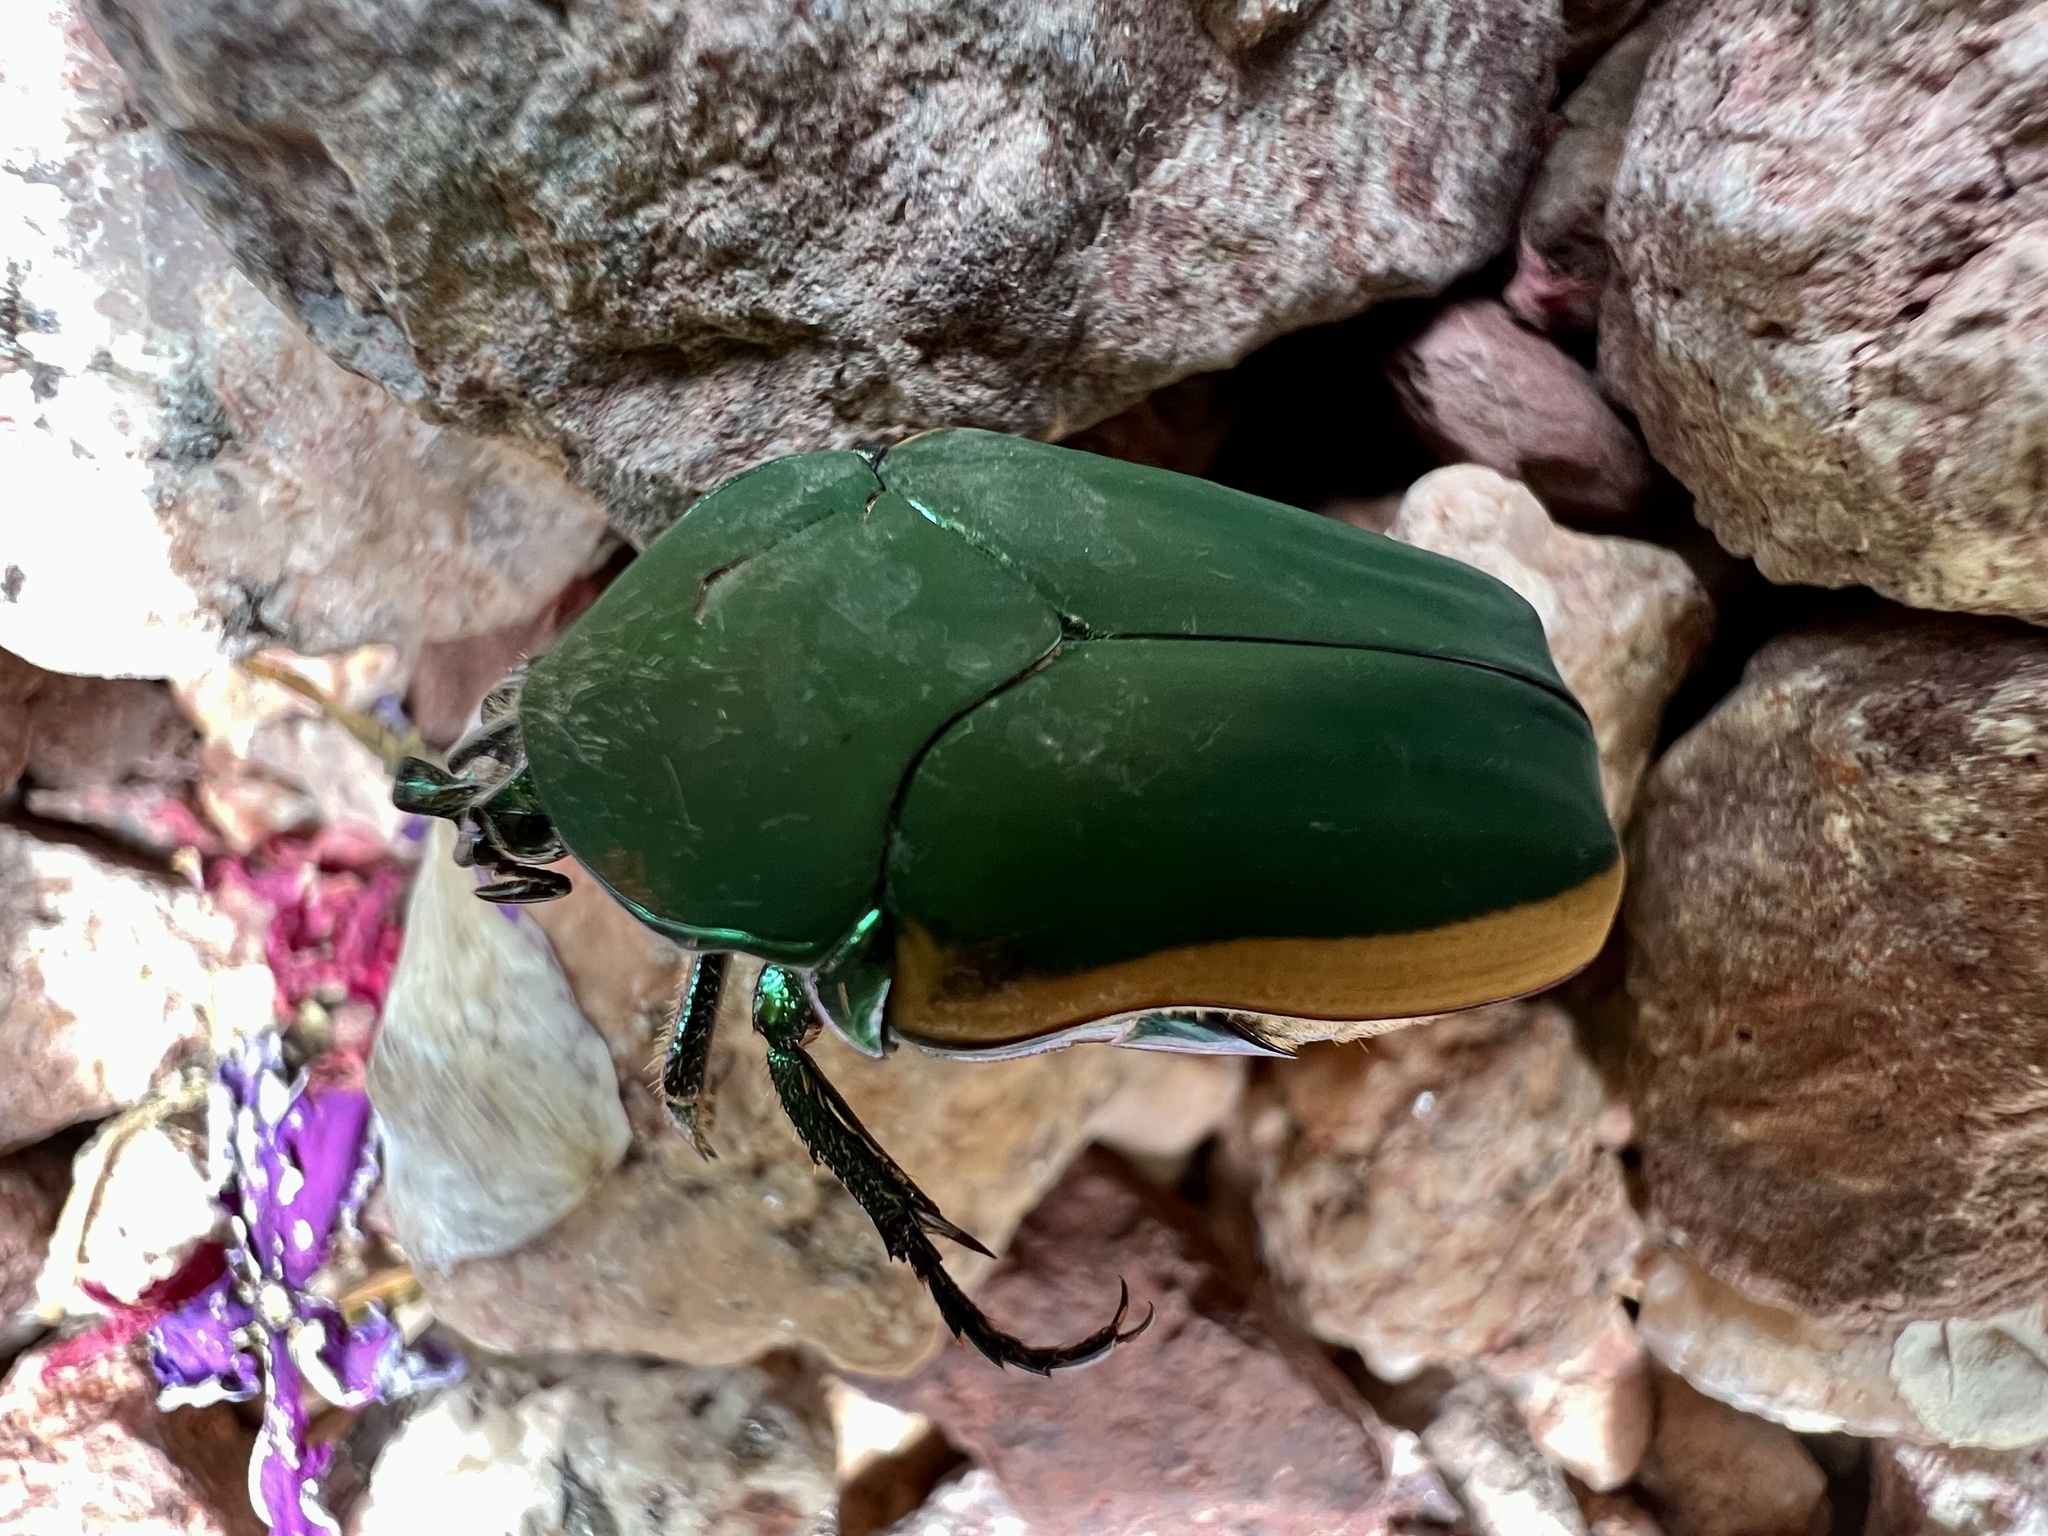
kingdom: Animalia
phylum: Arthropoda
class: Insecta
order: Coleoptera
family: Scarabaeidae
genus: Cotinis
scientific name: Cotinis mutabilis
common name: Figeater beetle
